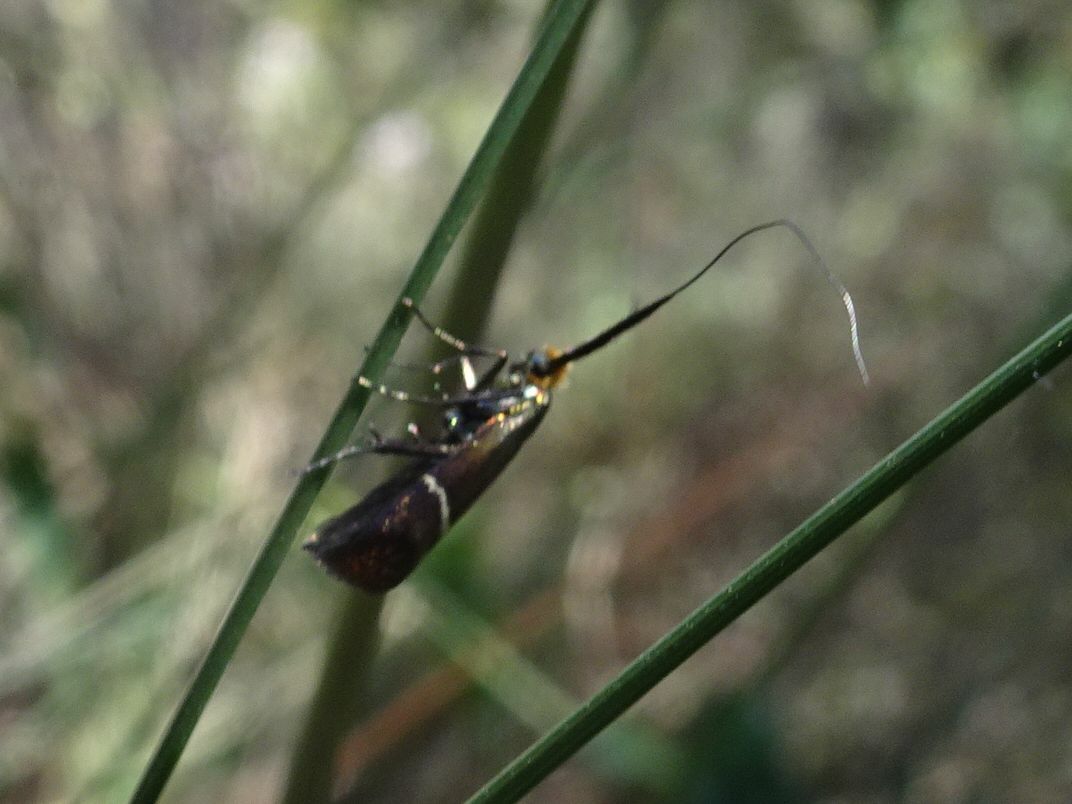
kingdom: Animalia
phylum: Arthropoda
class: Insecta
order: Lepidoptera
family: Adelidae
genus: Adela
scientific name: Adela australis
